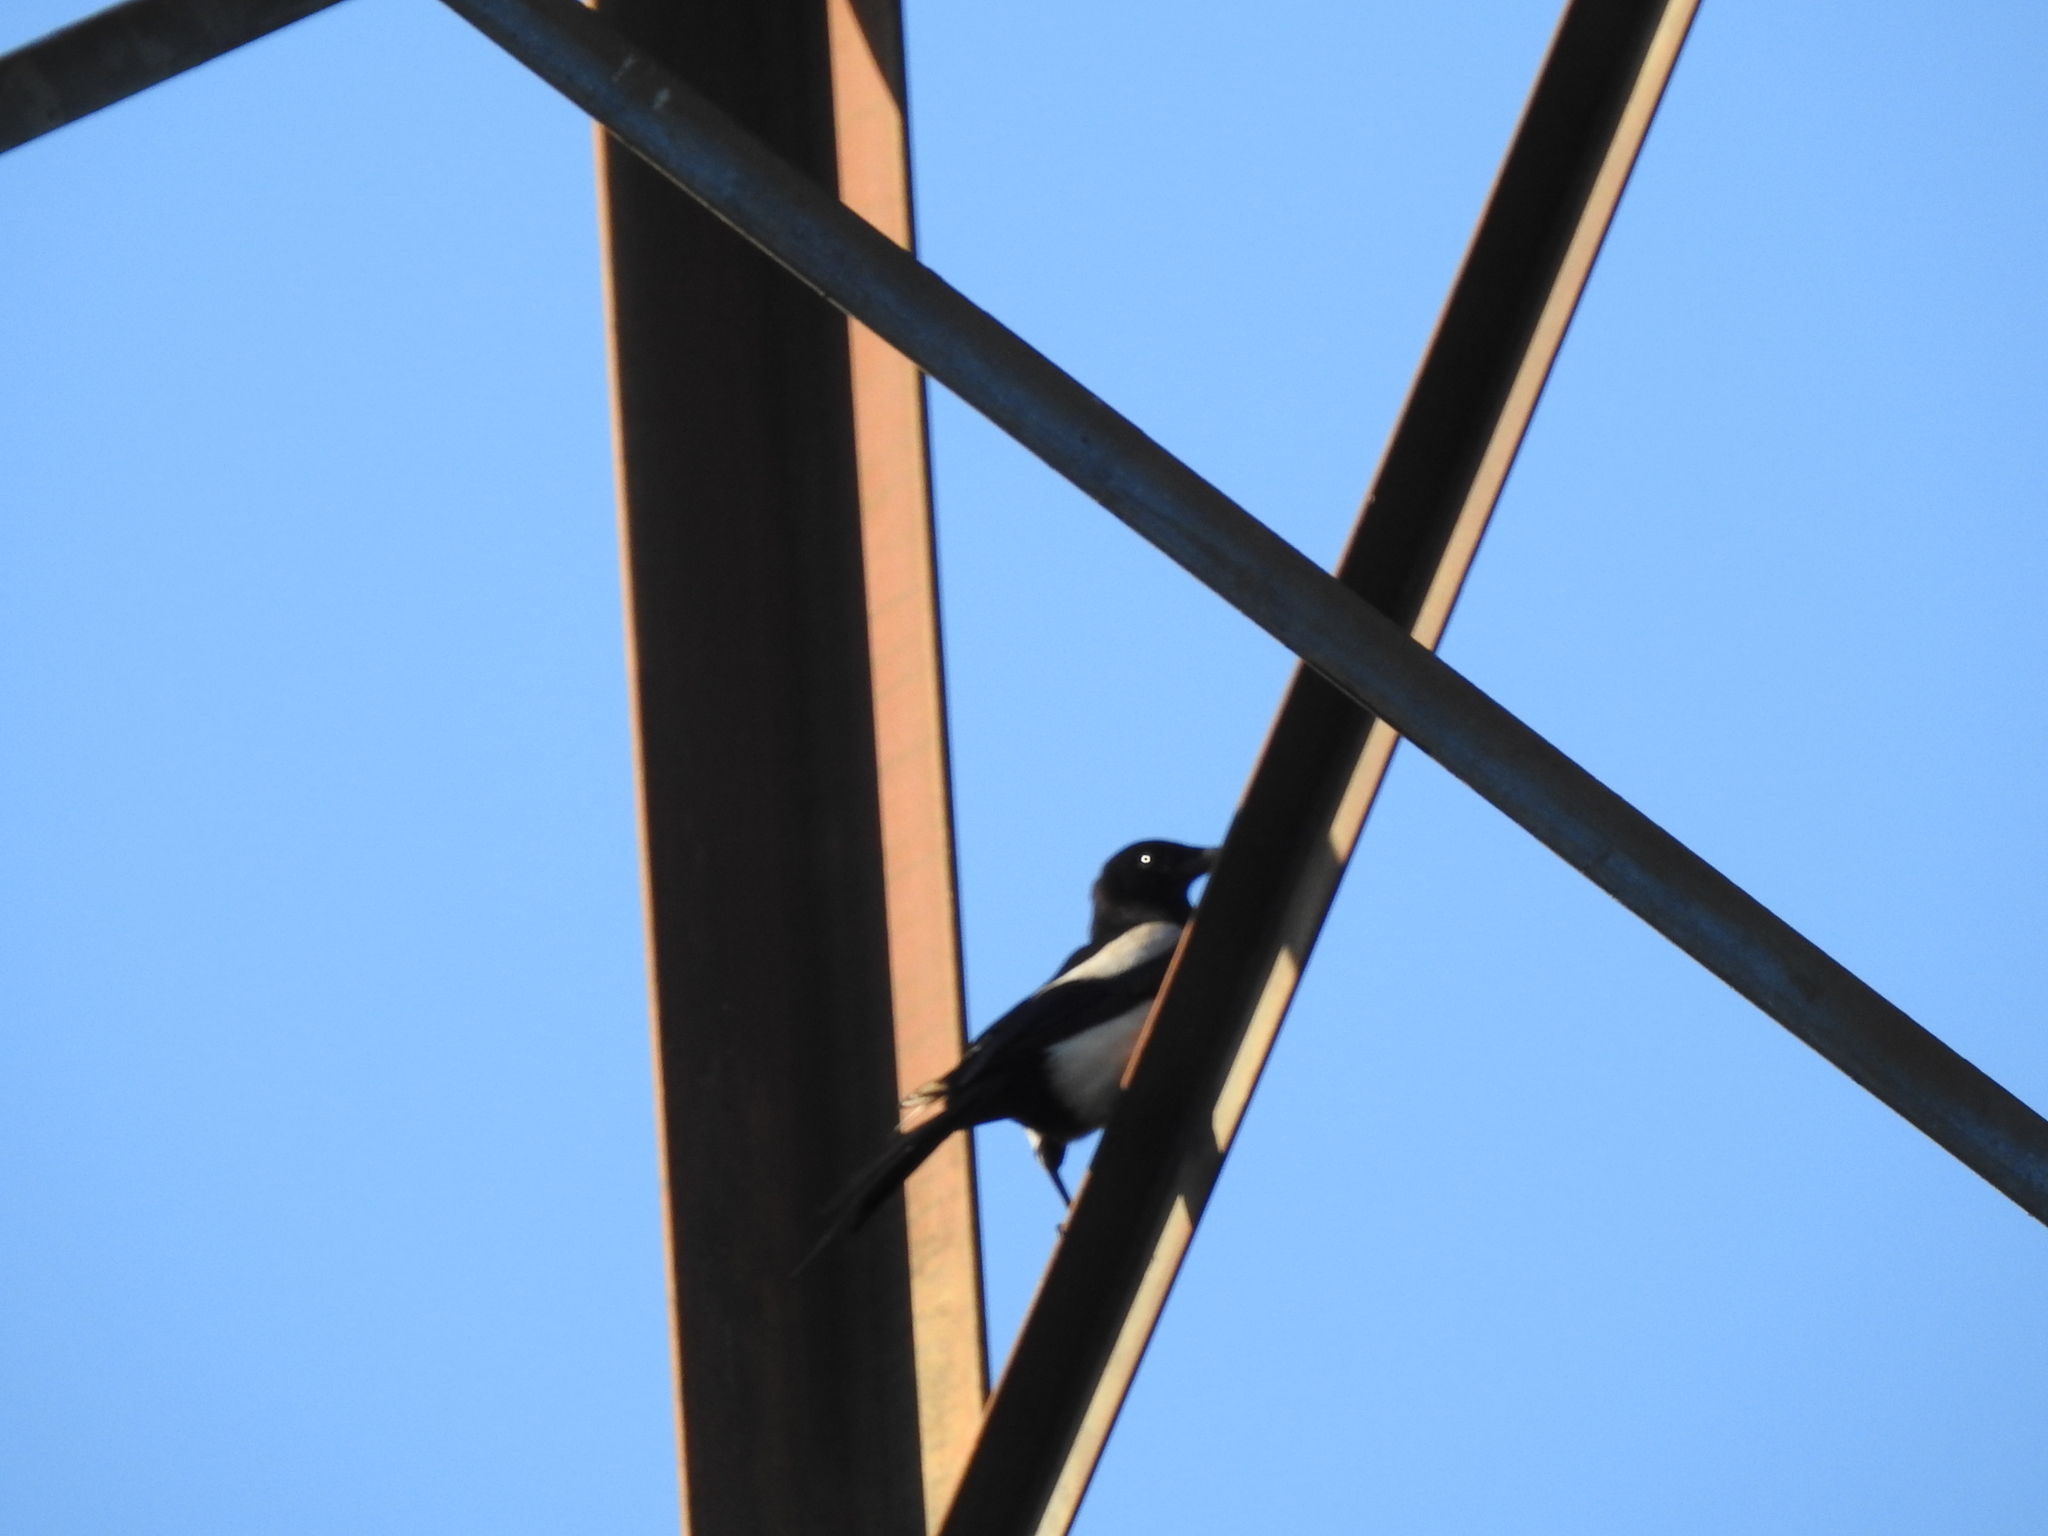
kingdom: Animalia
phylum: Chordata
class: Aves
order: Passeriformes
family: Corvidae
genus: Pica
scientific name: Pica pica
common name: Eurasian magpie
